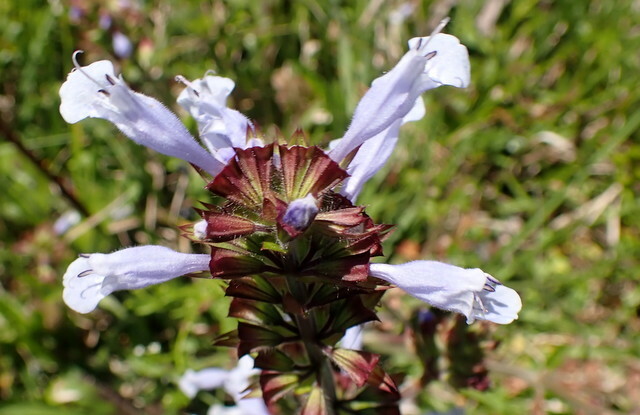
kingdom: Plantae
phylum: Tracheophyta
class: Magnoliopsida
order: Lamiales
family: Lamiaceae
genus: Salvia
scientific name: Salvia lyrata
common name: Cancerweed
